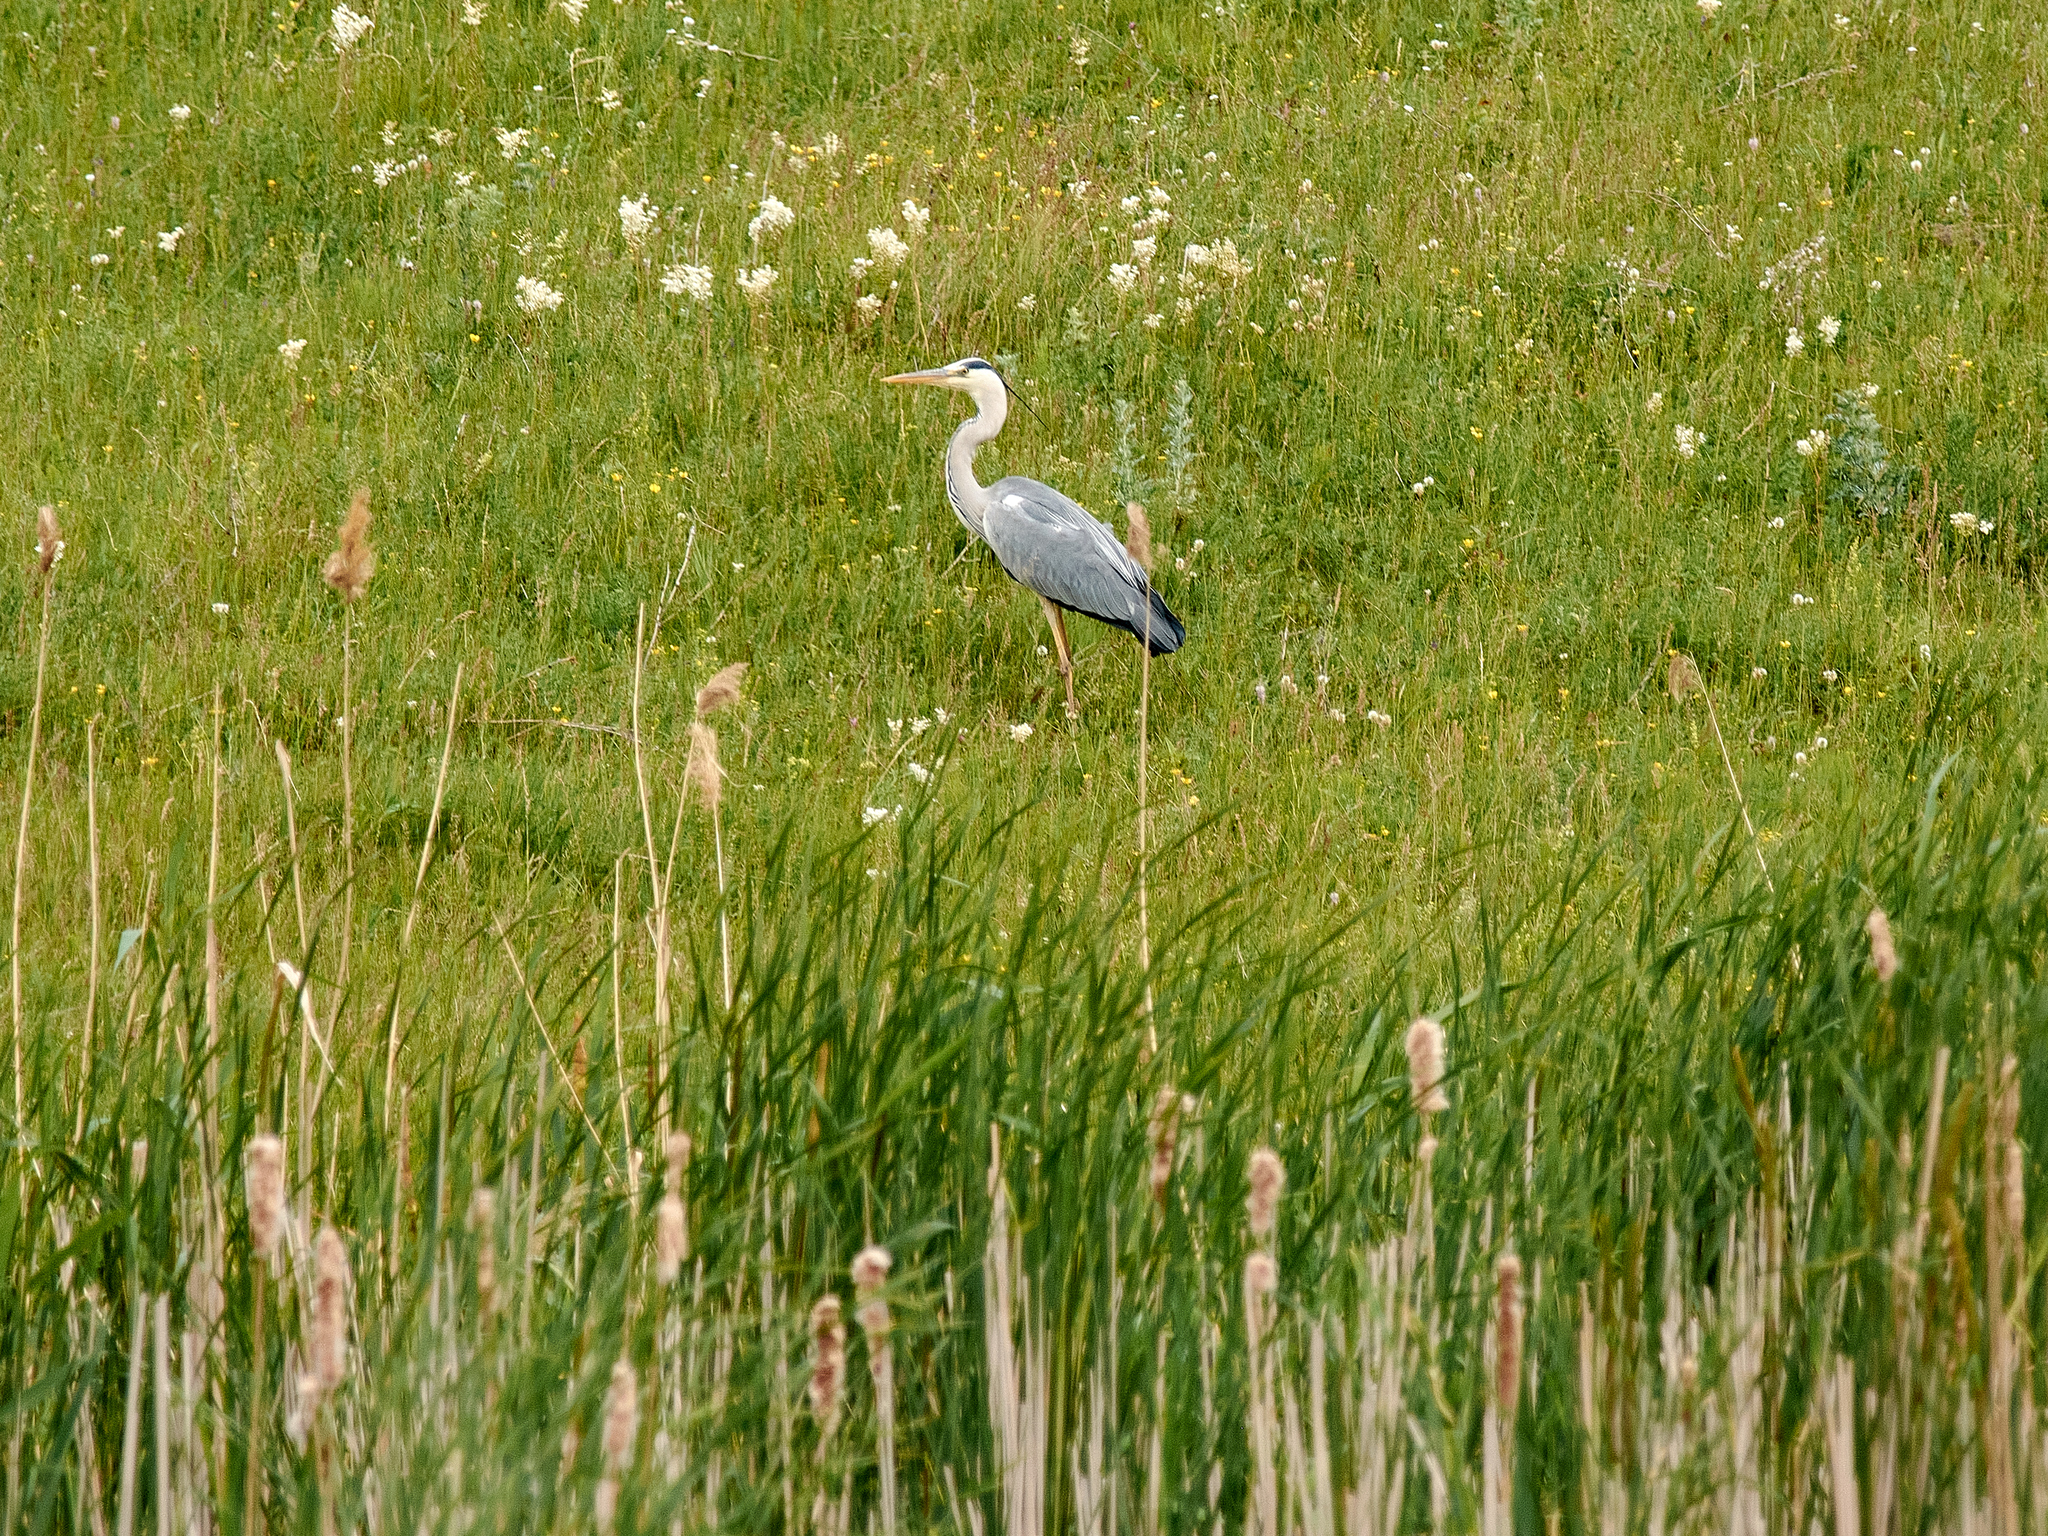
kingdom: Animalia
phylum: Chordata
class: Aves
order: Pelecaniformes
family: Ardeidae
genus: Ardea
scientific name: Ardea cinerea
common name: Grey heron
